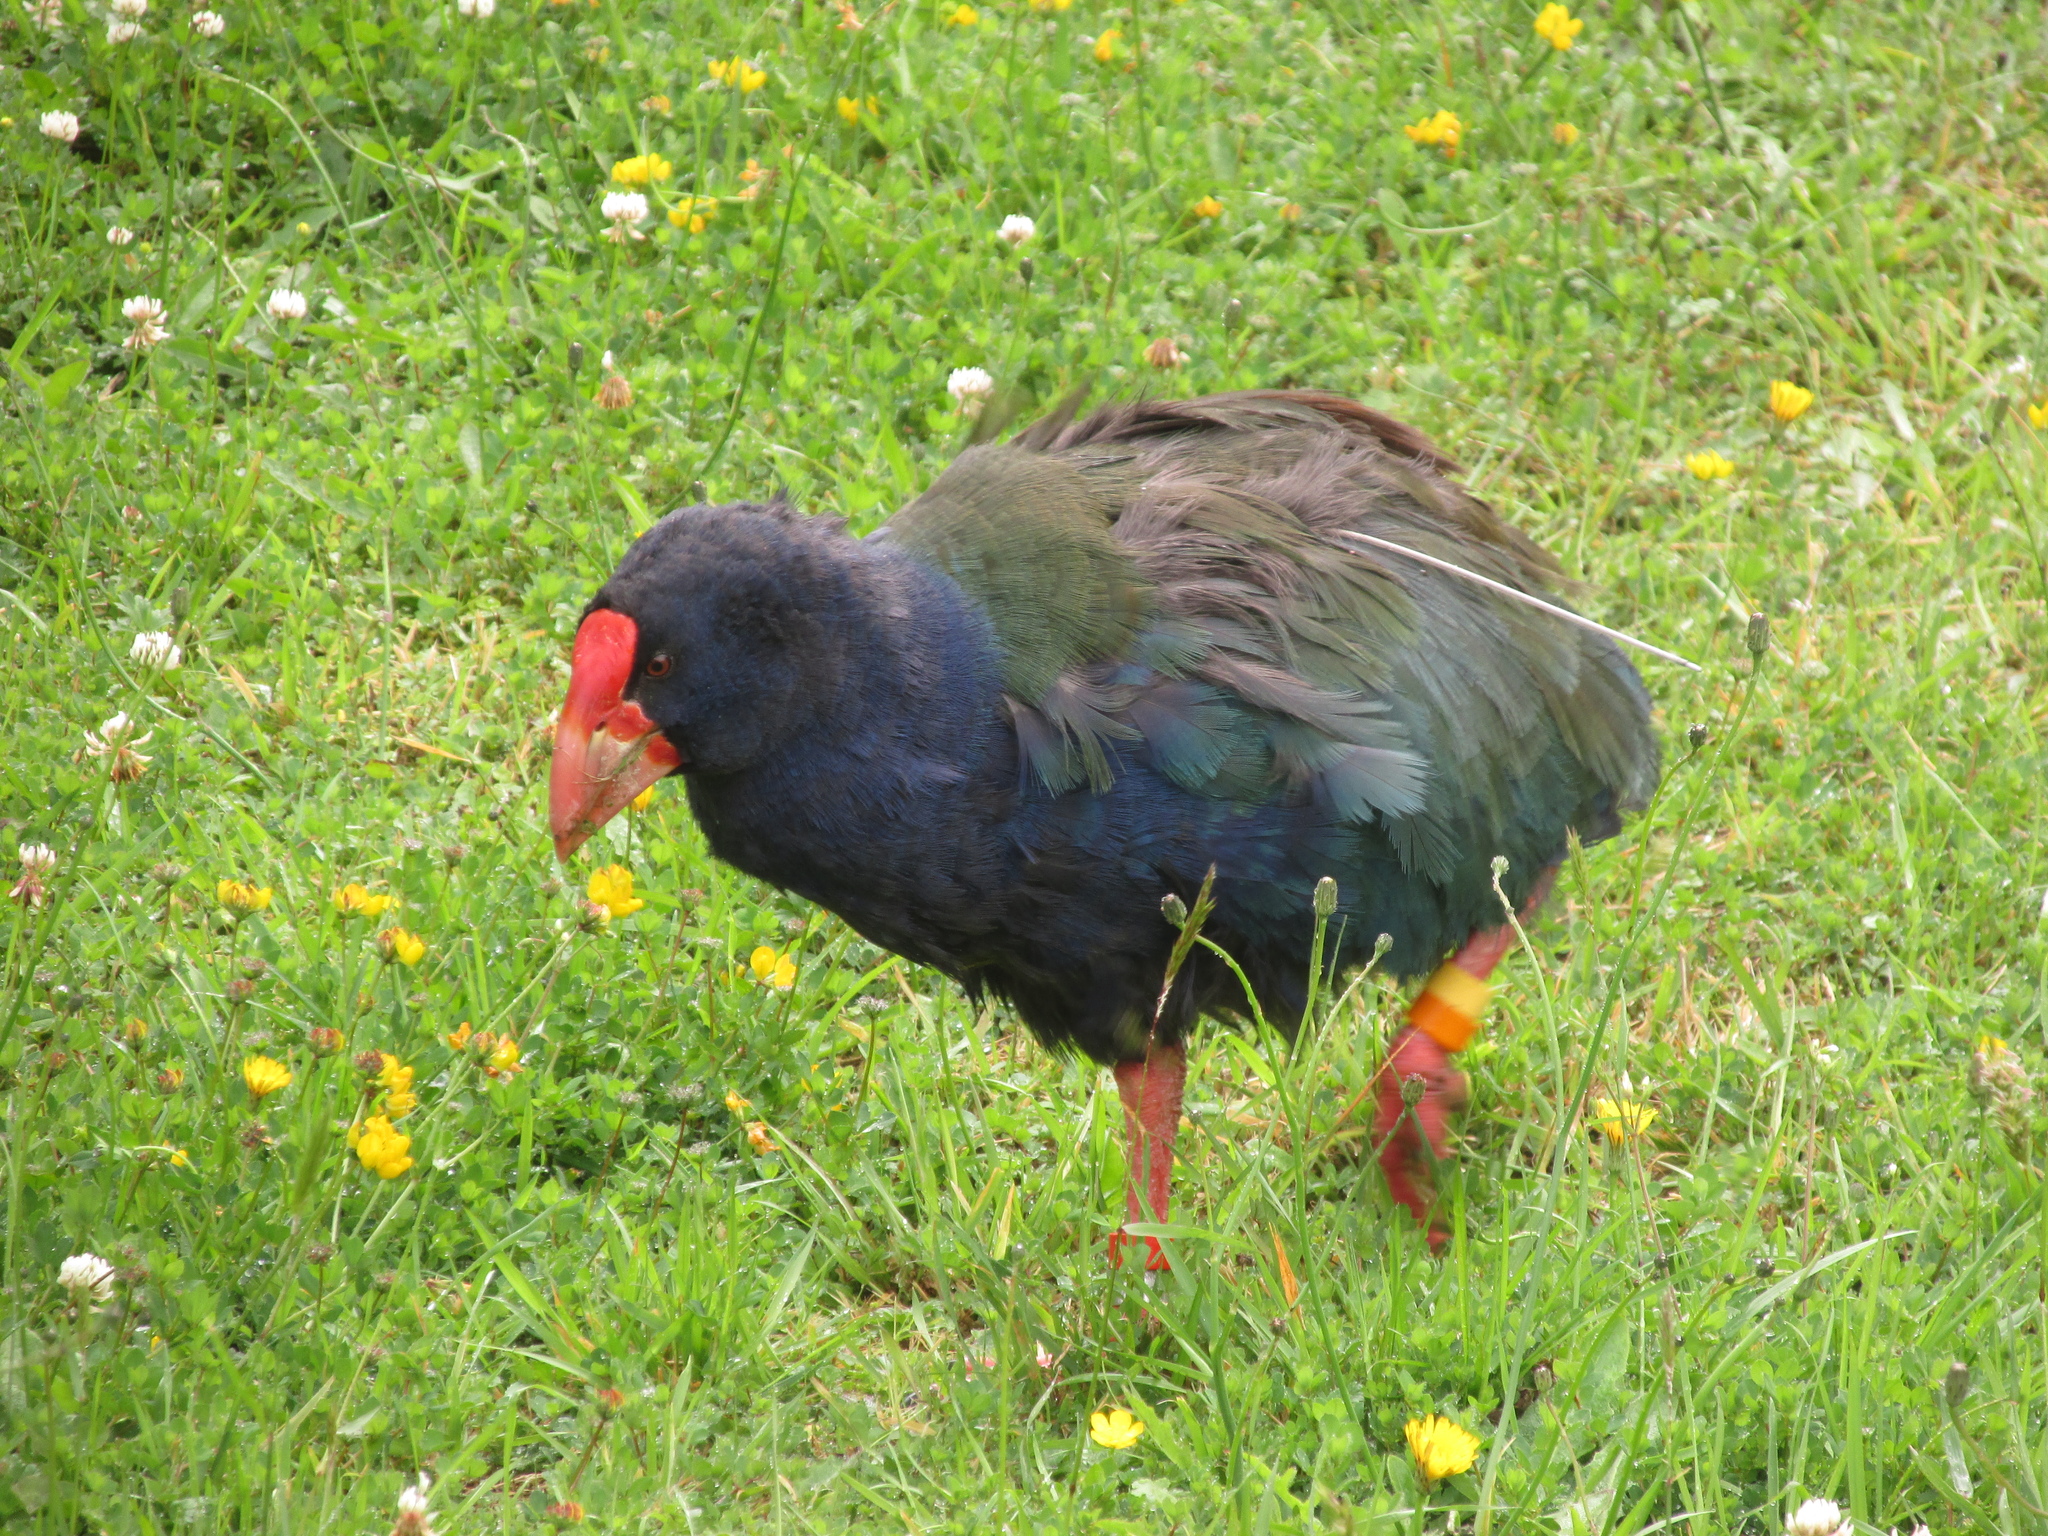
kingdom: Animalia
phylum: Chordata
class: Aves
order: Gruiformes
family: Rallidae
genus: Porphyrio
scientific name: Porphyrio hochstetteri
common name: South island takahe
